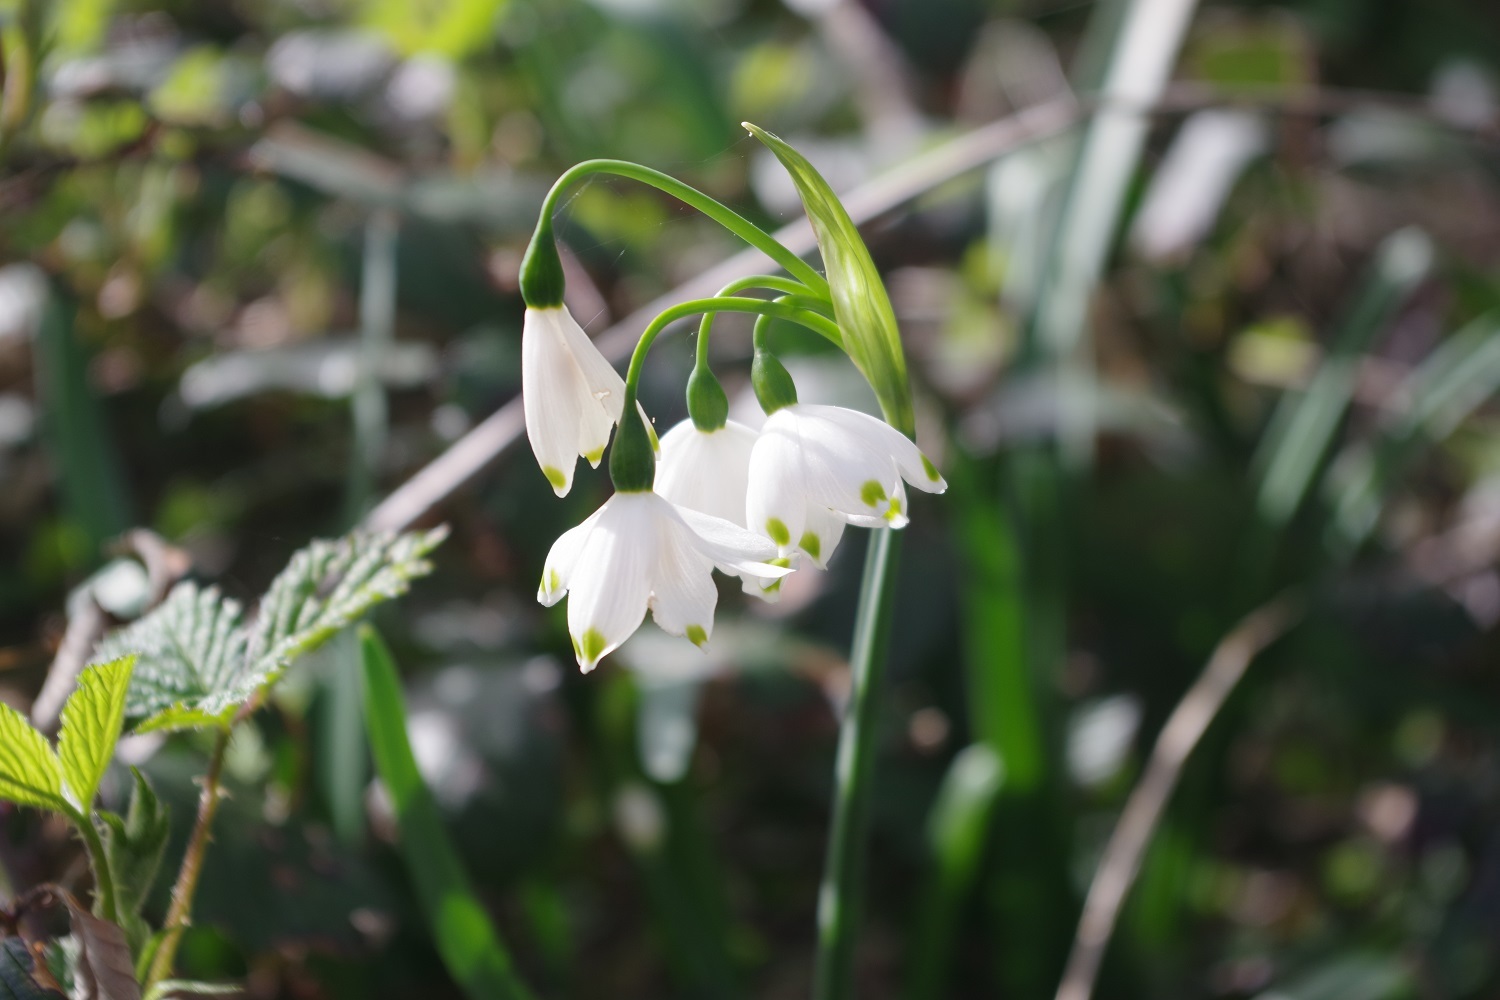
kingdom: Plantae
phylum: Tracheophyta
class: Liliopsida
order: Asparagales
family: Amaryllidaceae
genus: Leucojum
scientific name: Leucojum aestivum
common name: Summer snowflake
